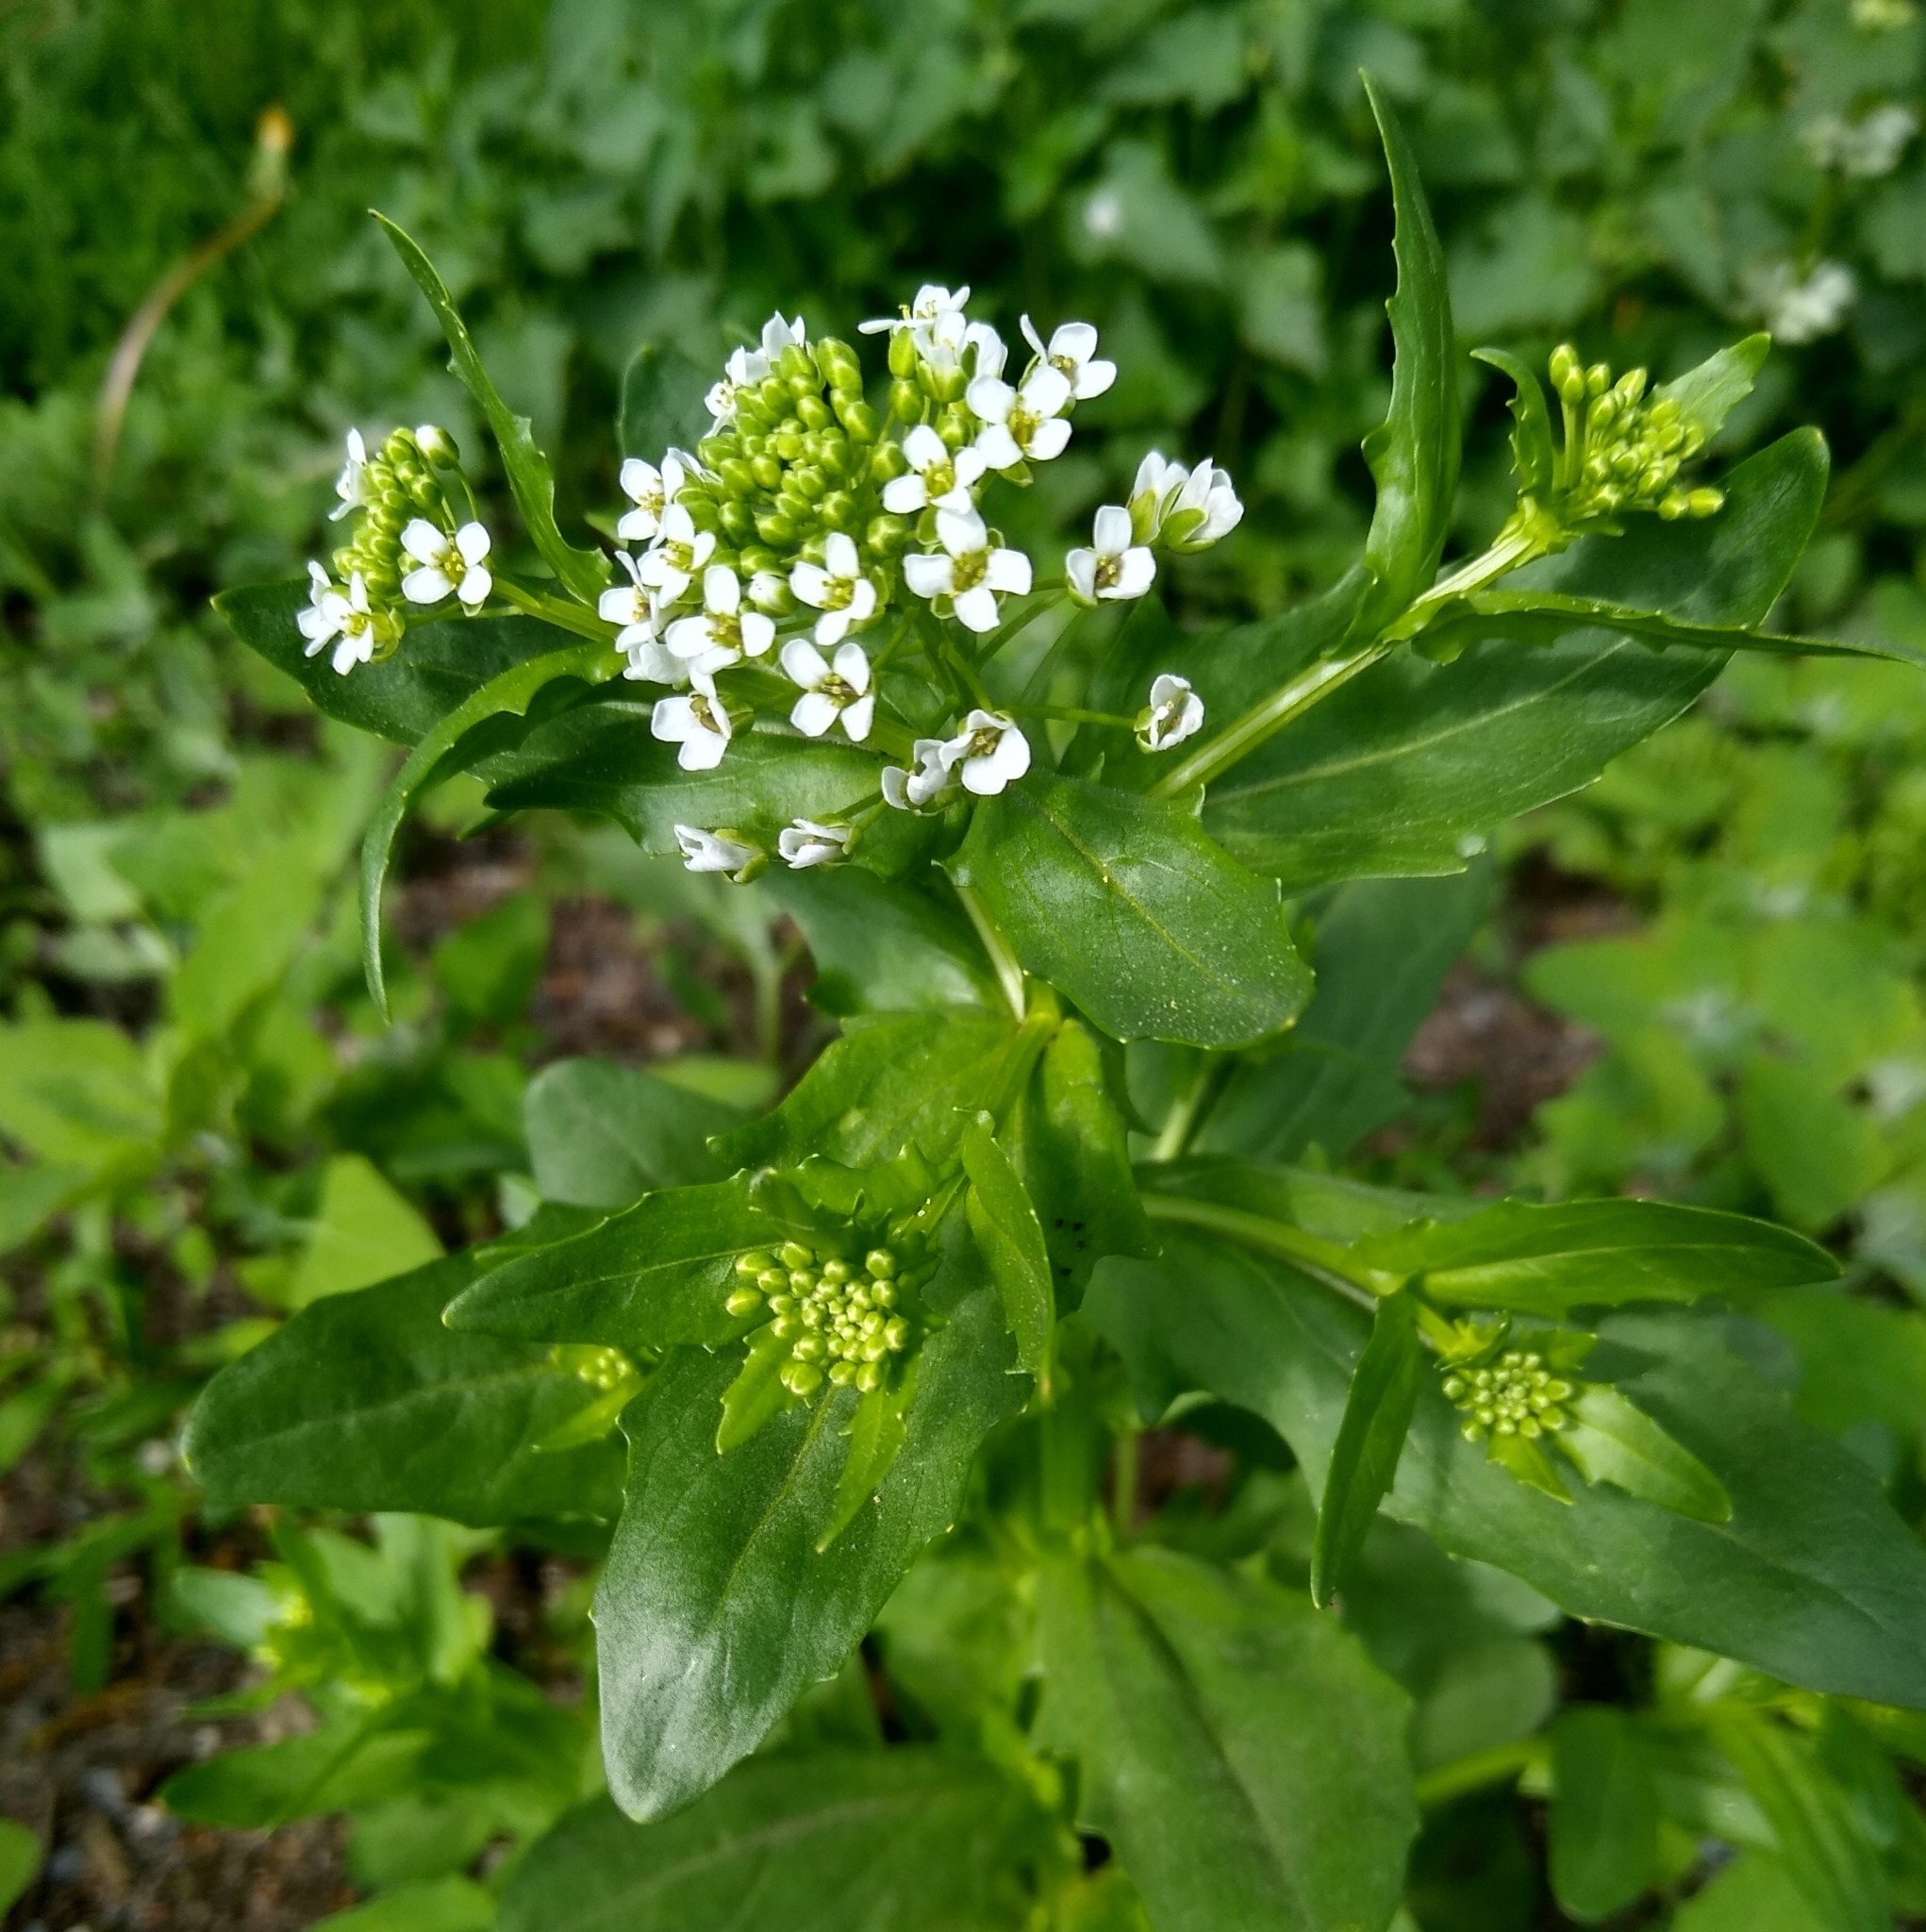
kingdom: Plantae
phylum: Tracheophyta
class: Magnoliopsida
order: Brassicales
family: Brassicaceae
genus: Thlaspi
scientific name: Thlaspi arvense
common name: Field pennycress
